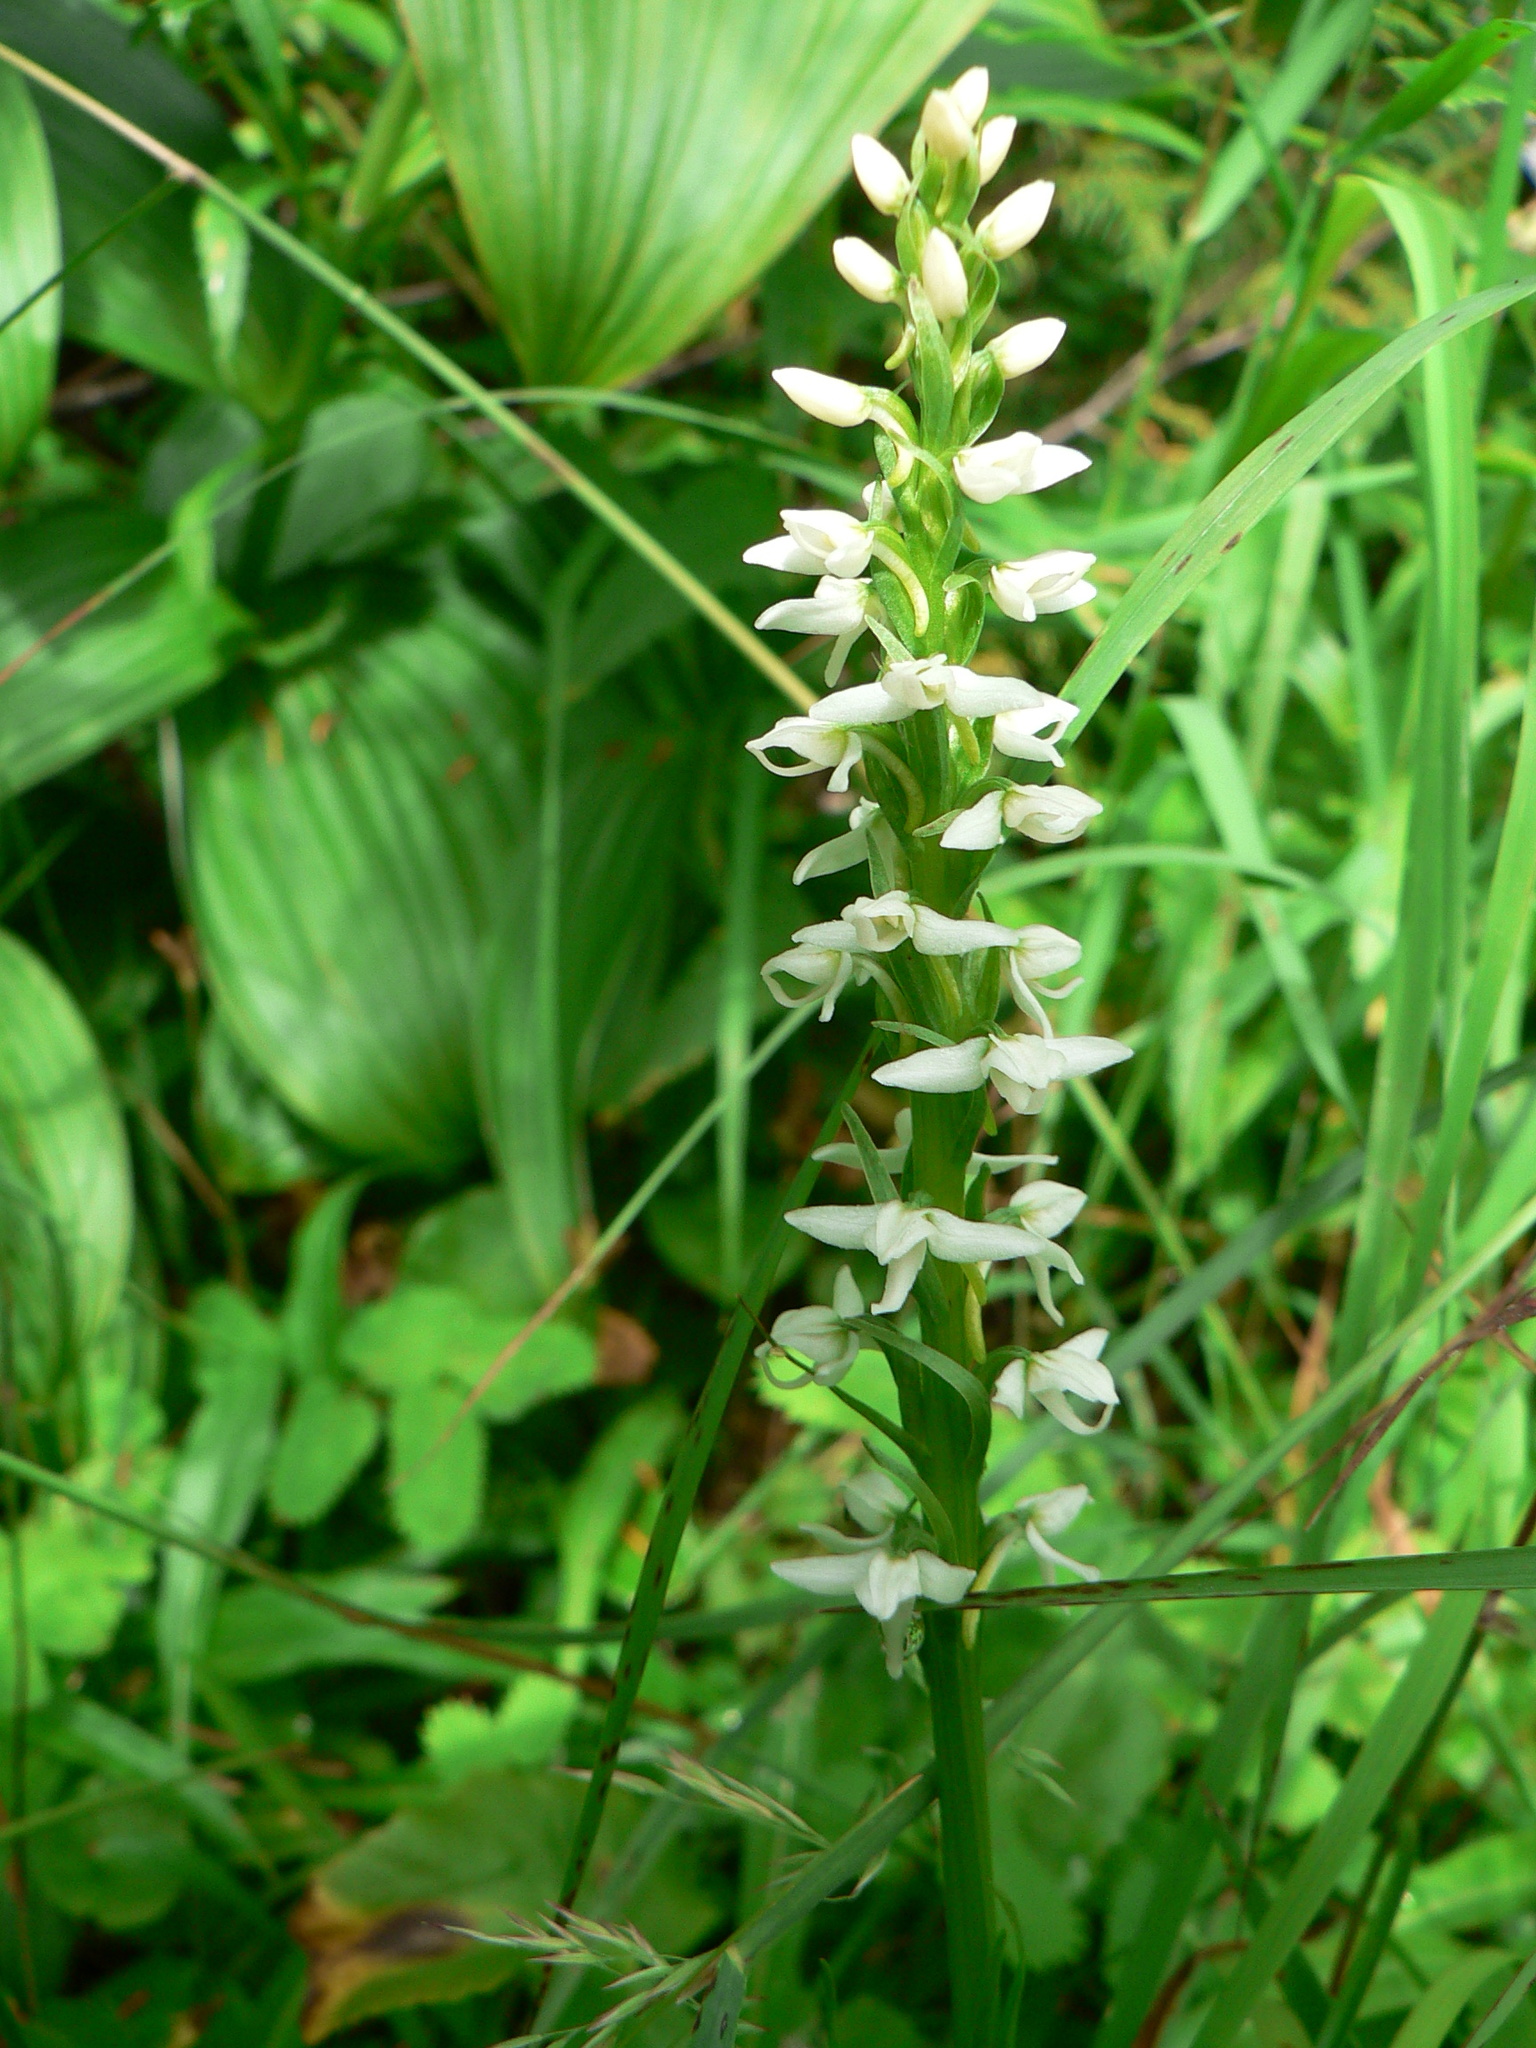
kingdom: Plantae
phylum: Tracheophyta
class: Liliopsida
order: Asparagales
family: Orchidaceae
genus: Platanthera
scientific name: Platanthera dilatata
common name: Bog candles
